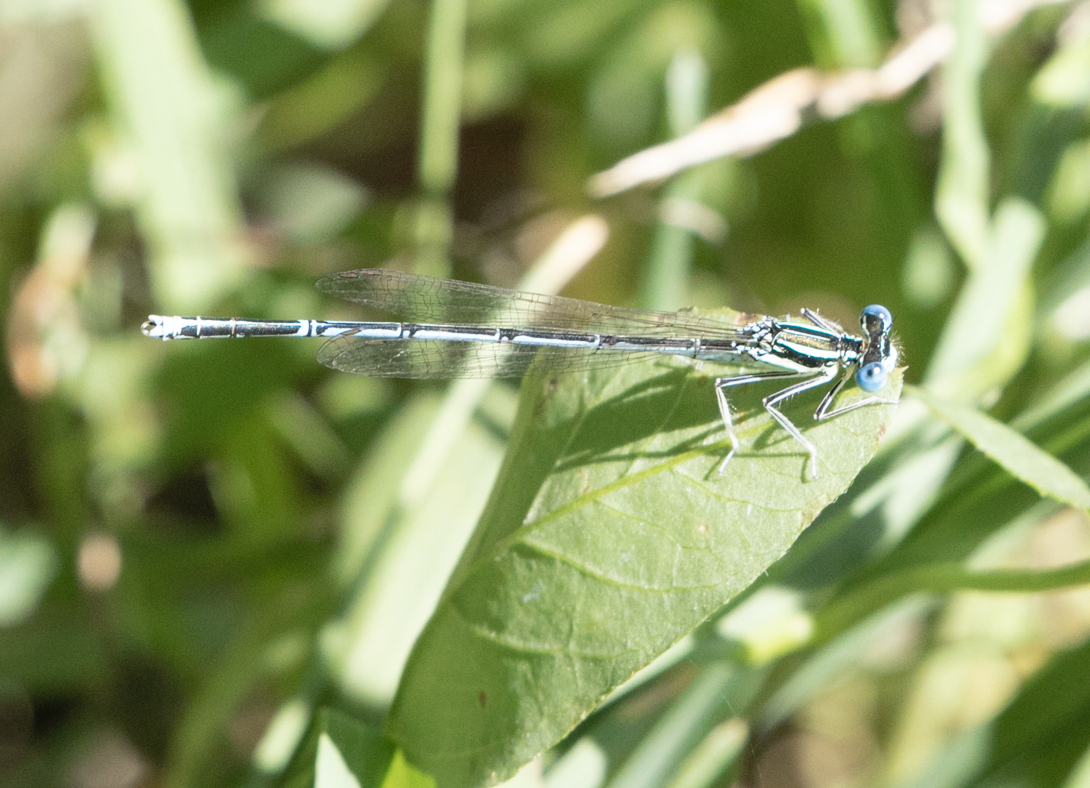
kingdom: Animalia
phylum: Arthropoda
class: Insecta
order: Odonata
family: Platycnemididae
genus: Platycnemis
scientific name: Platycnemis pennipes
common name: White-legged damselfly
